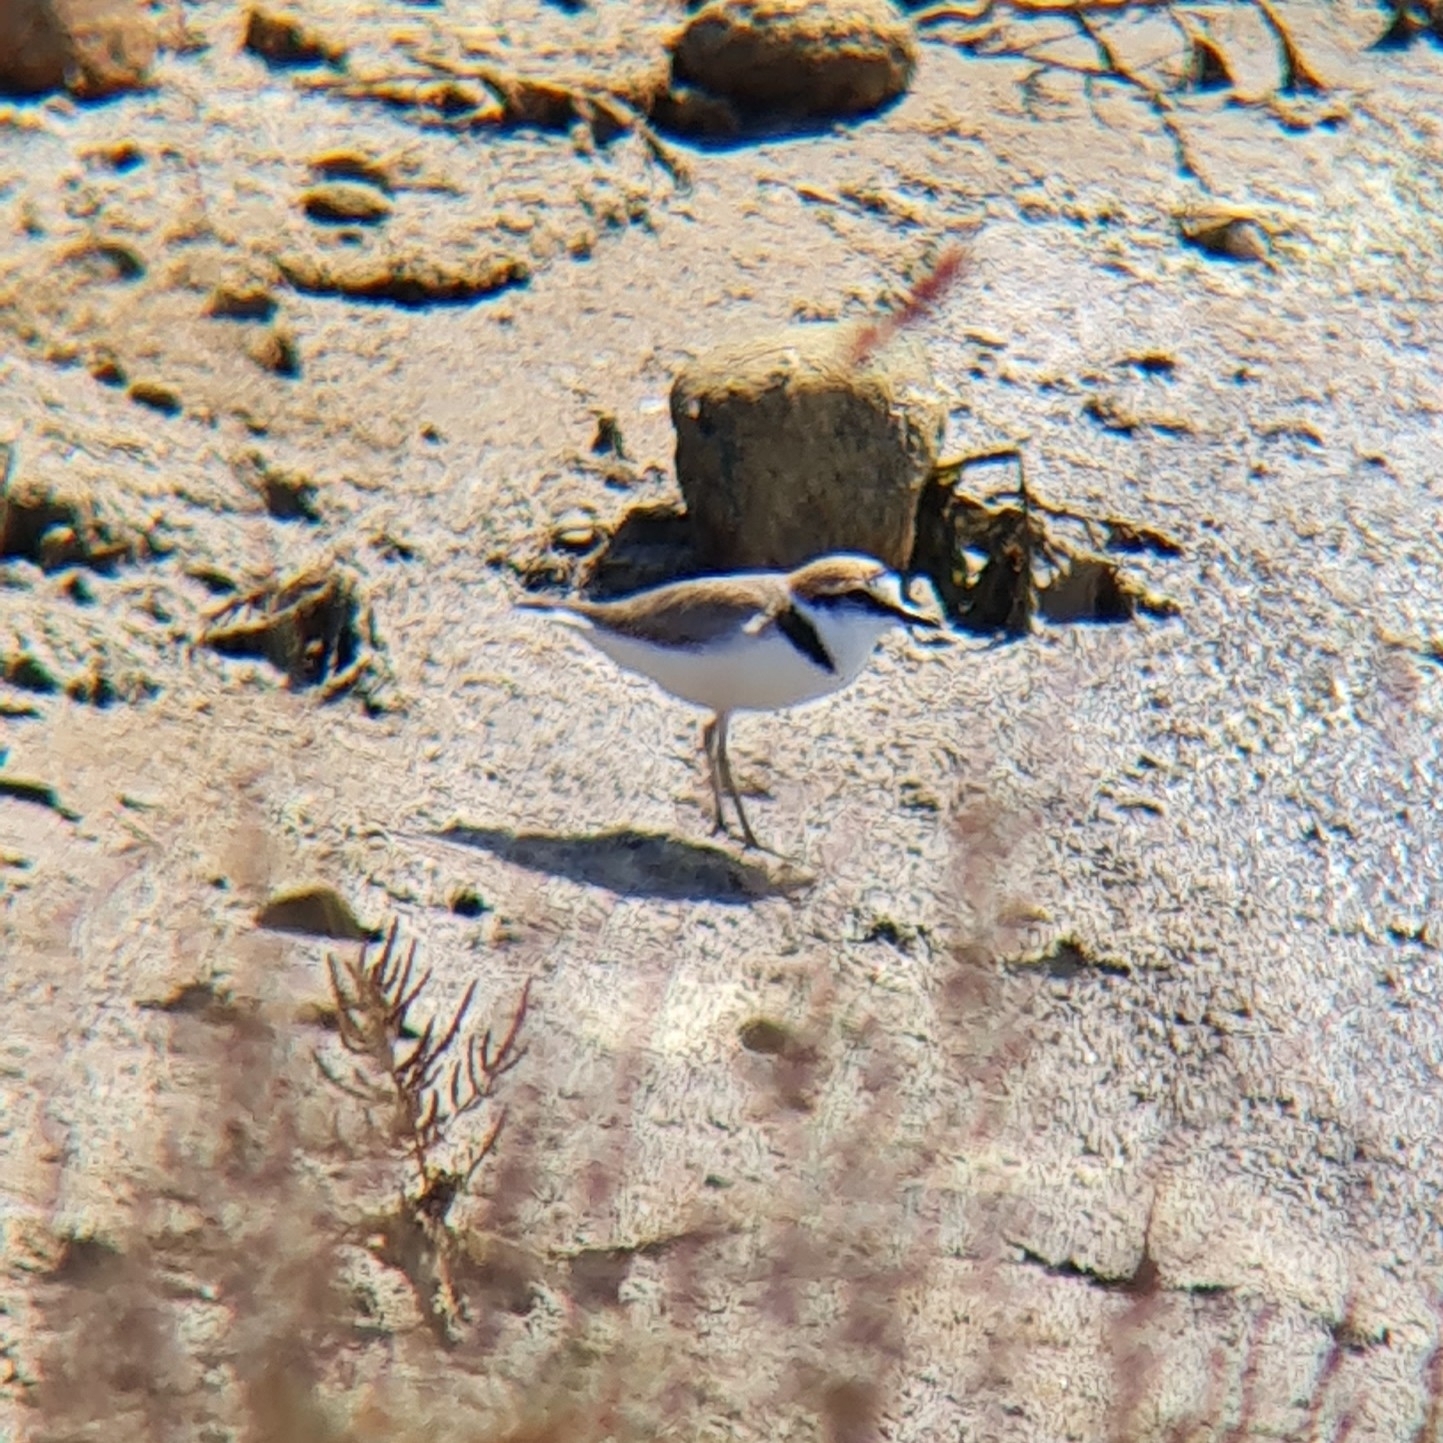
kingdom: Animalia
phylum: Chordata
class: Aves
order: Charadriiformes
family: Charadriidae
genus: Charadrius
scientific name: Charadrius alexandrinus
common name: Kentish plover
